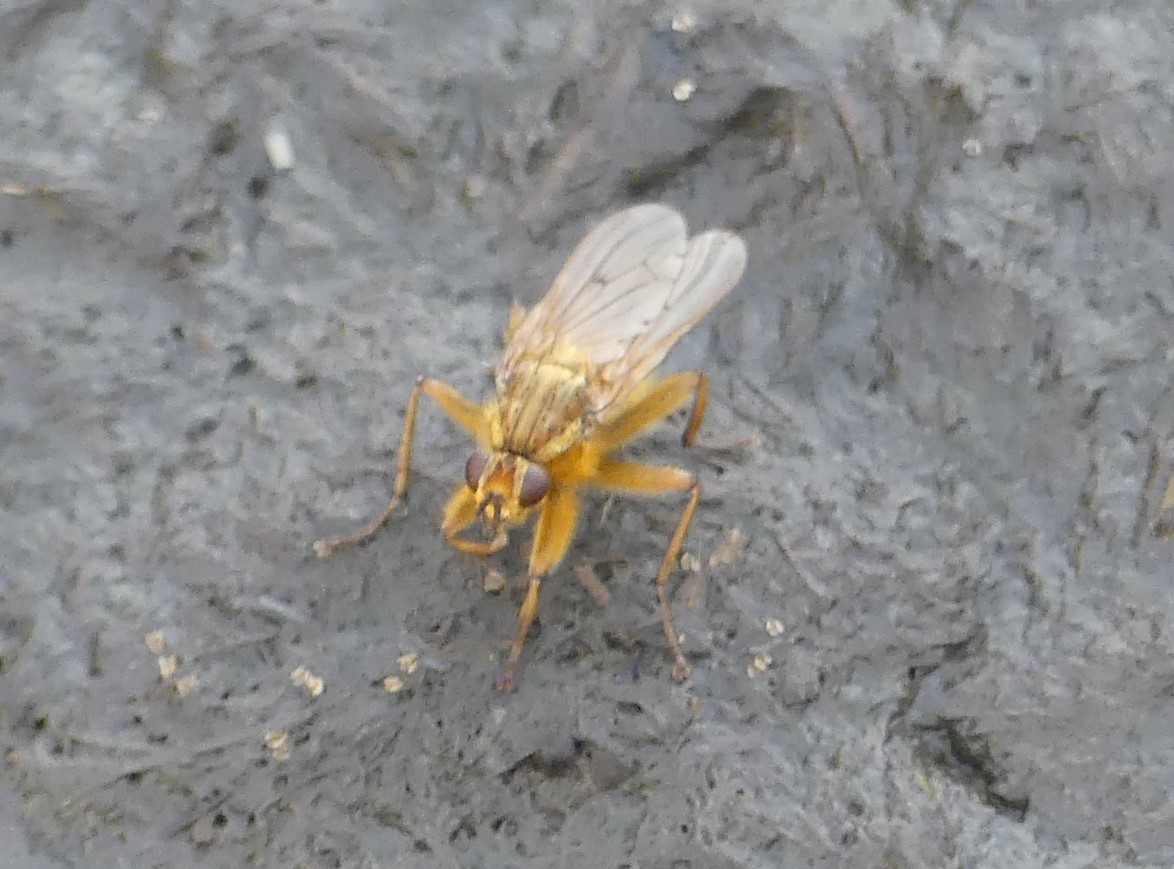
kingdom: Animalia
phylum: Arthropoda
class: Insecta
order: Diptera
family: Scathophagidae
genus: Scathophaga
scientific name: Scathophaga stercoraria
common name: Yellow dung fly
